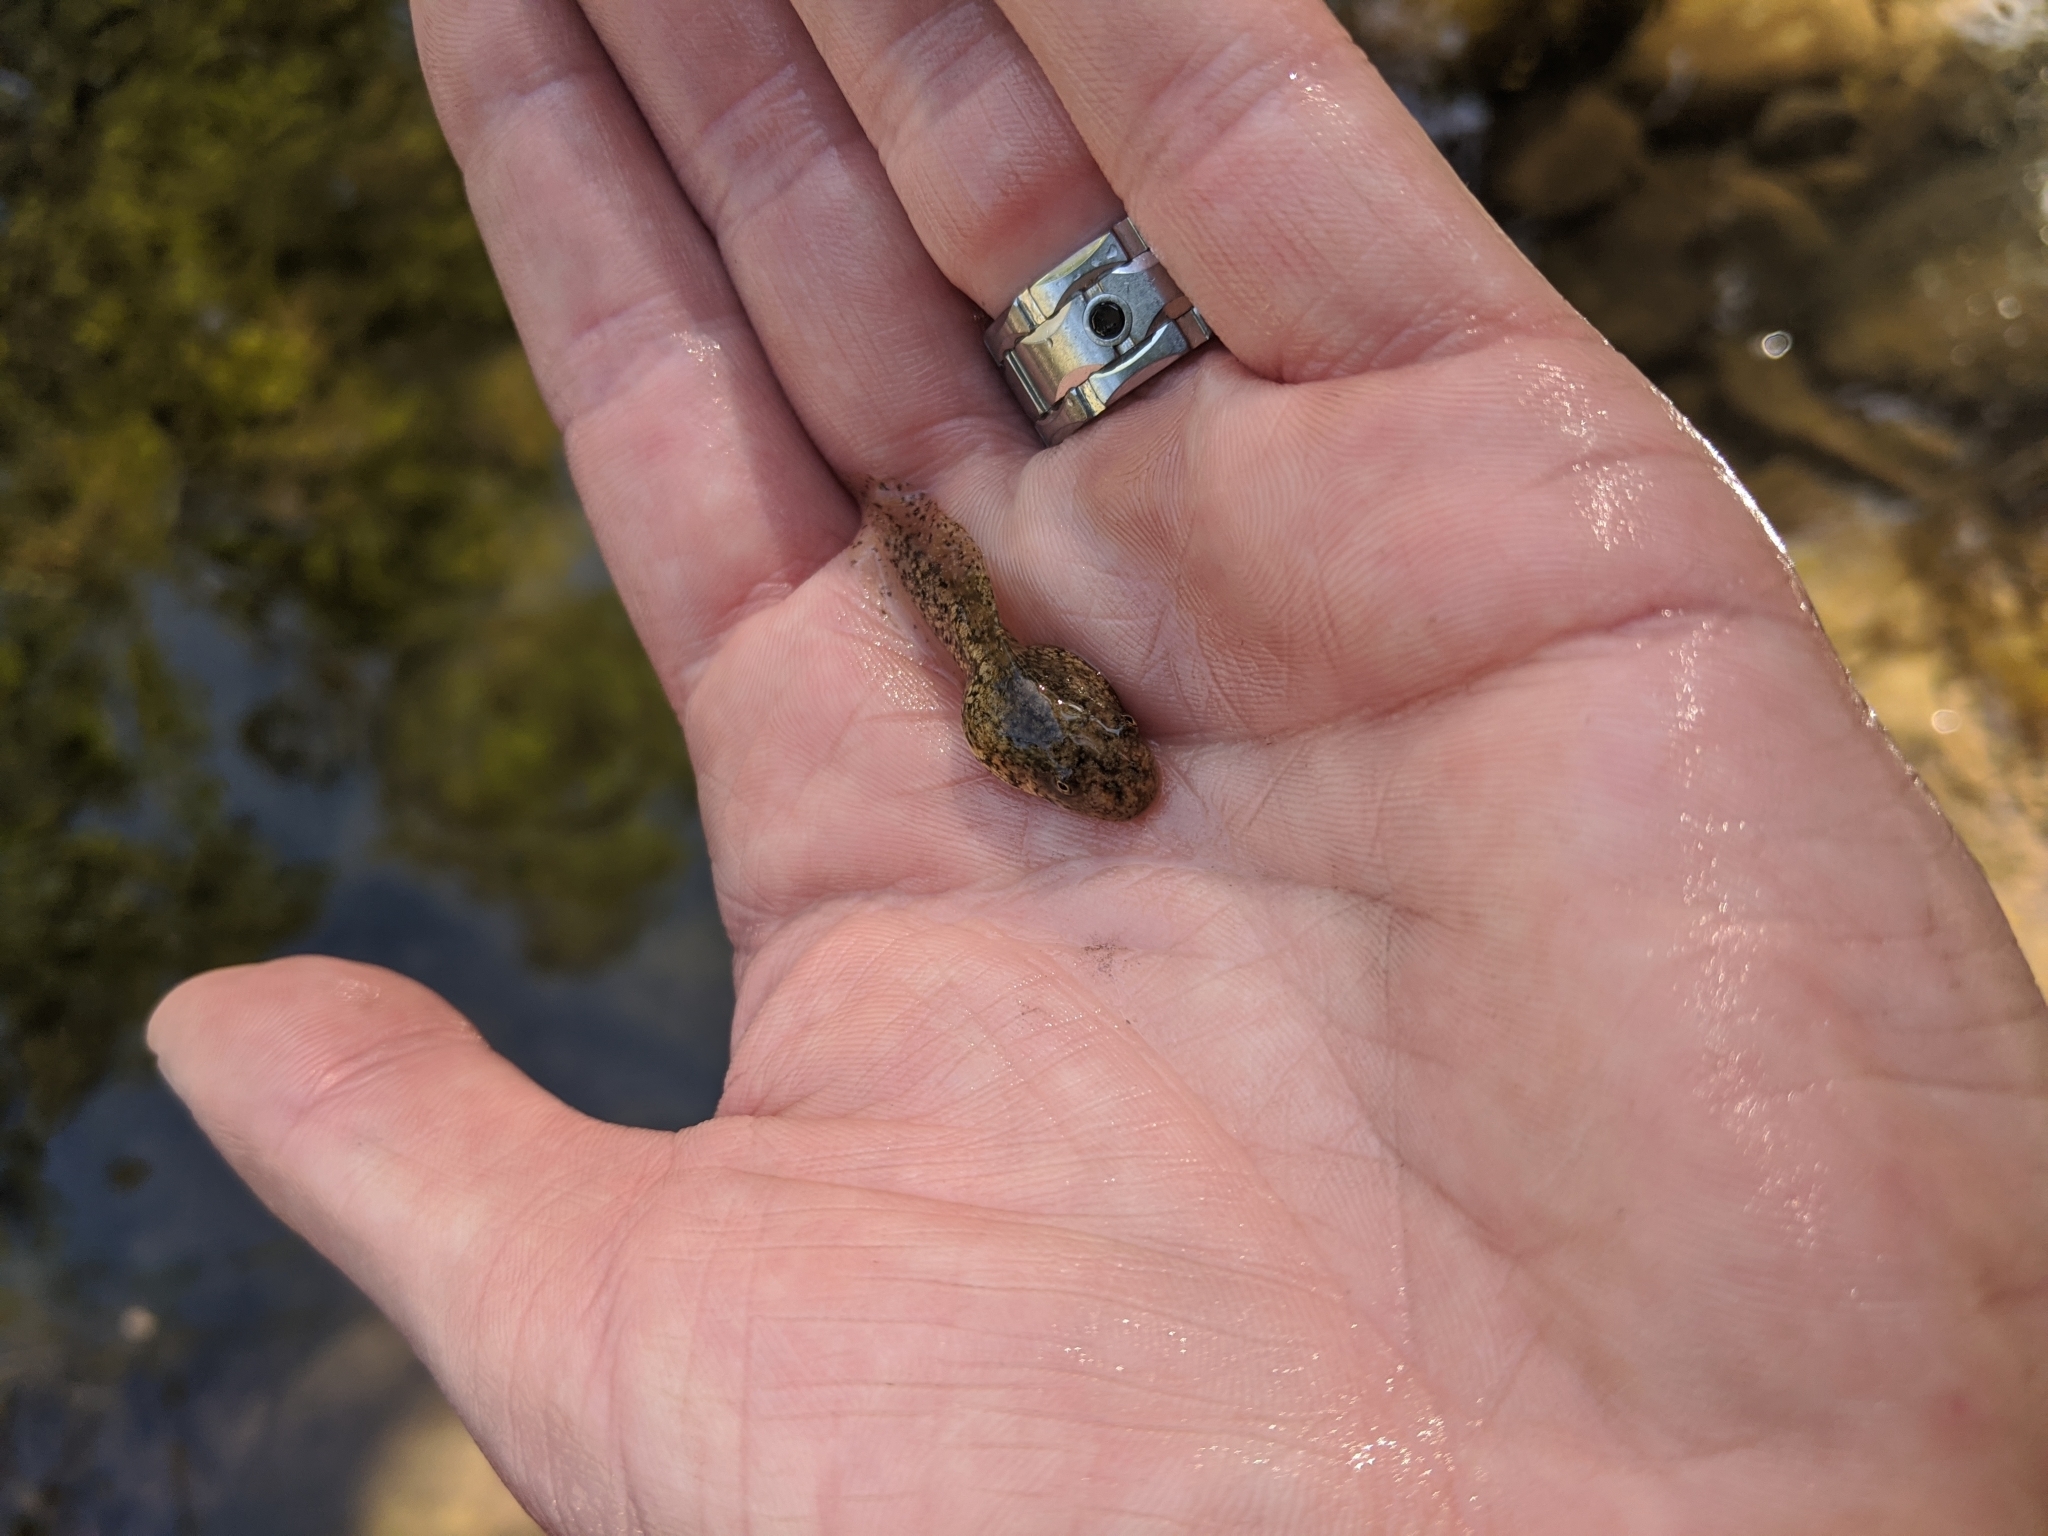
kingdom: Animalia
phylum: Chordata
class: Amphibia
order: Anura
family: Hylidae
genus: Pseudacris
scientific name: Pseudacris cadaverina
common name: California chorus frog
